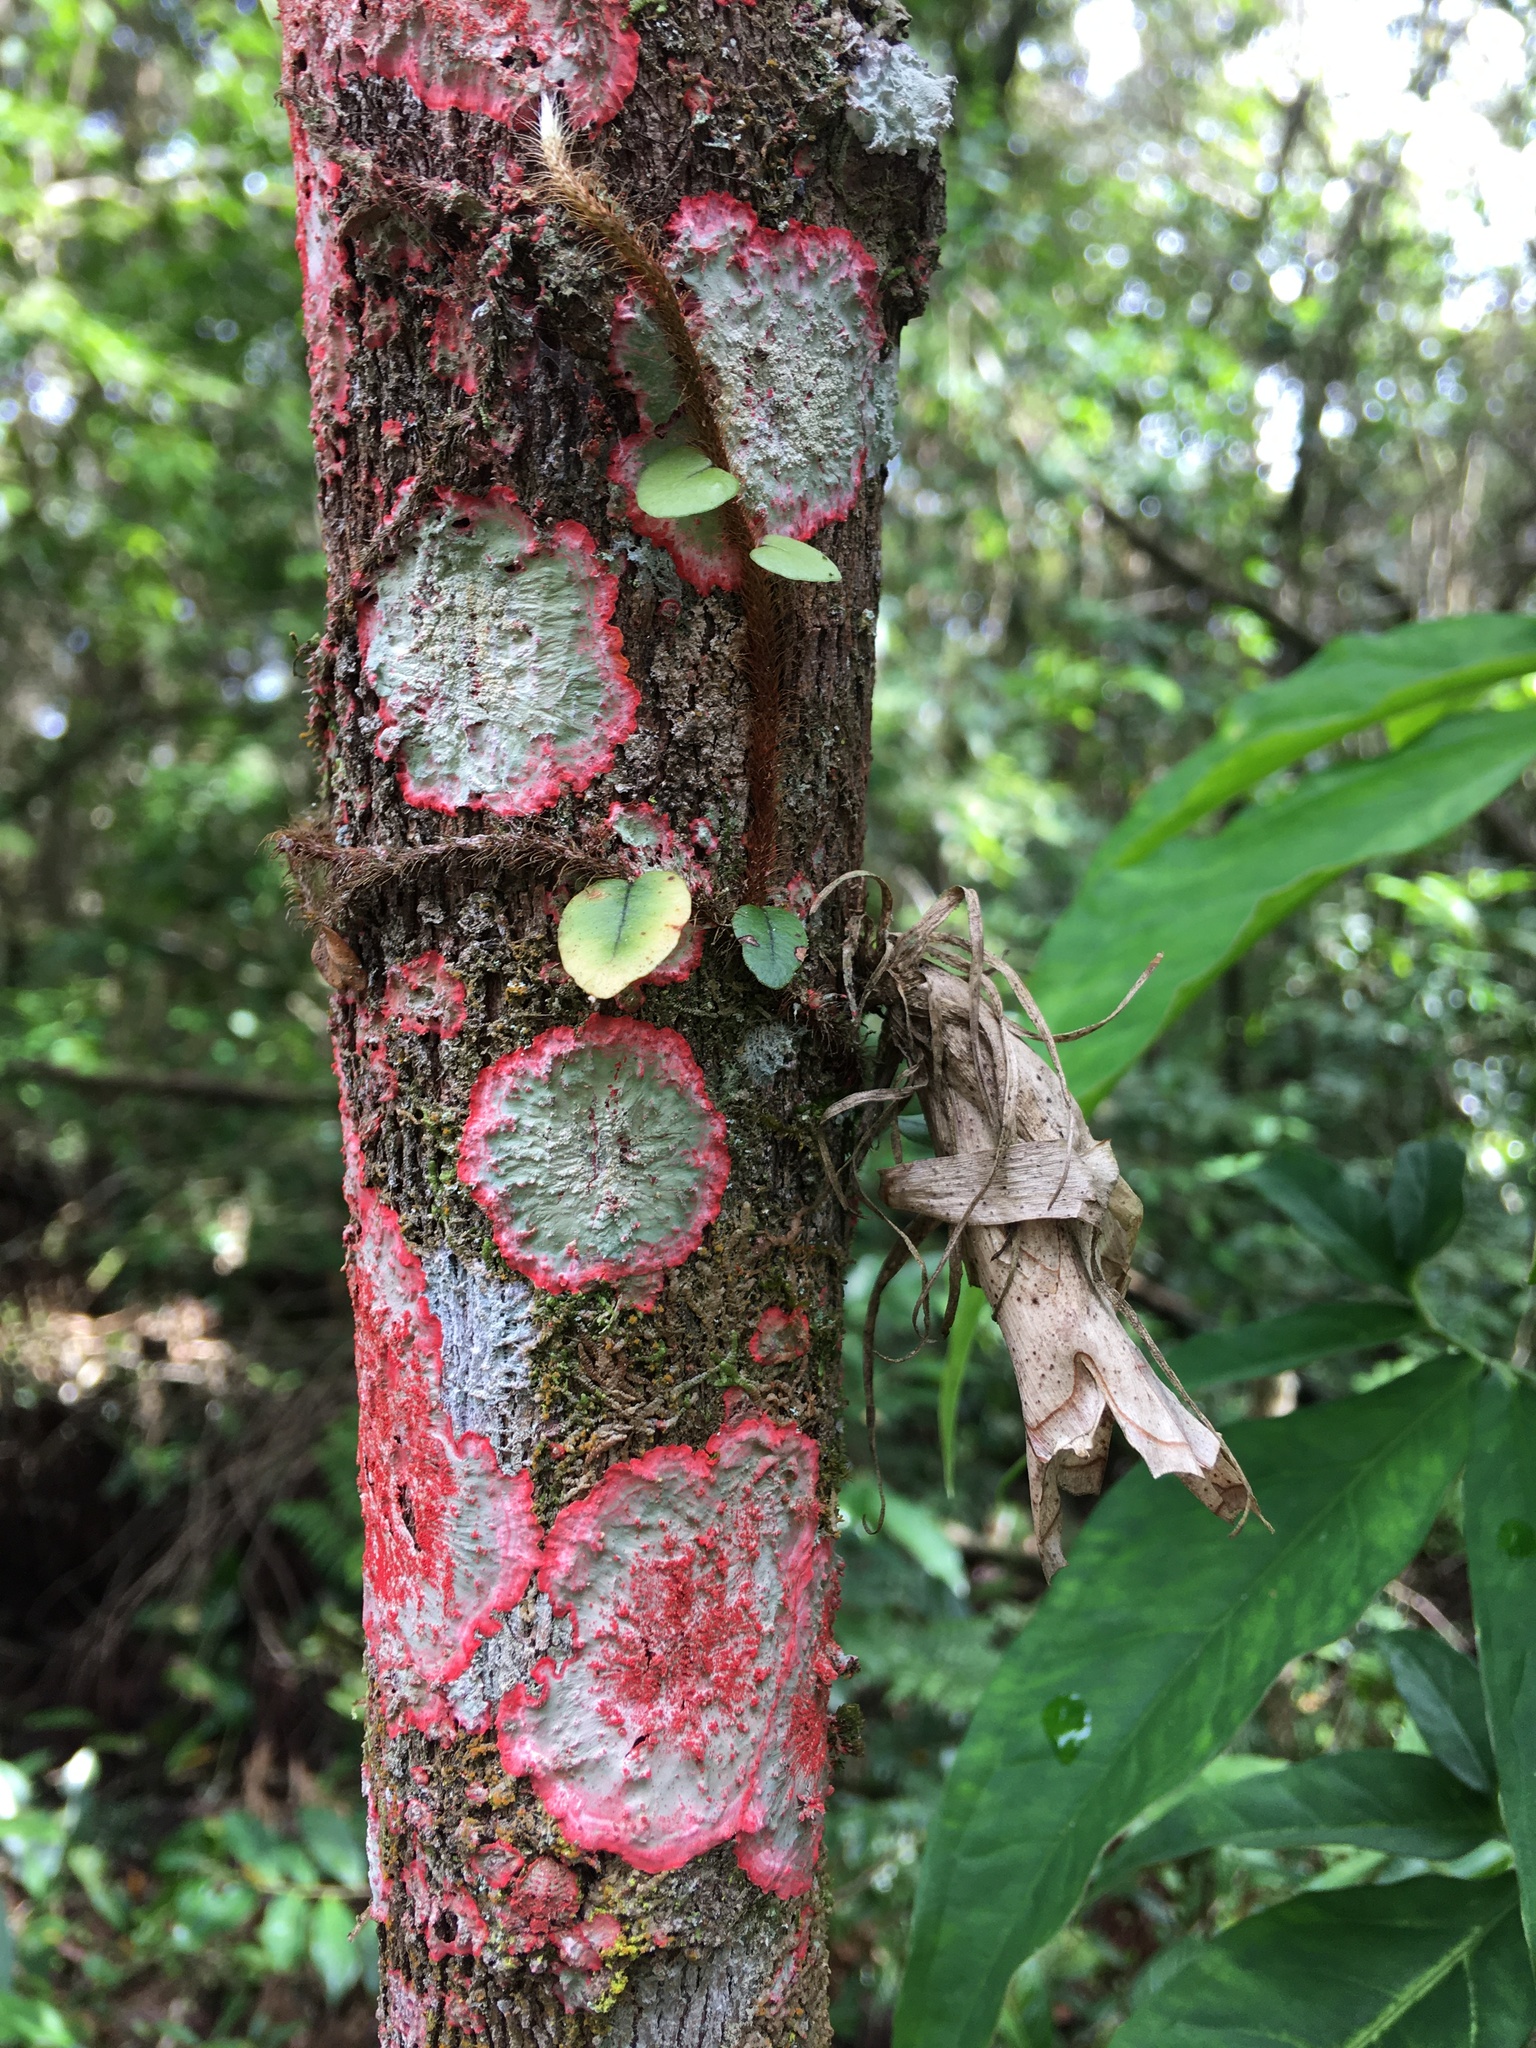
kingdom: Fungi
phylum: Ascomycota
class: Arthoniomycetes
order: Arthoniales
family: Arthoniaceae
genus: Herpothallon
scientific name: Herpothallon rubrocinctum
